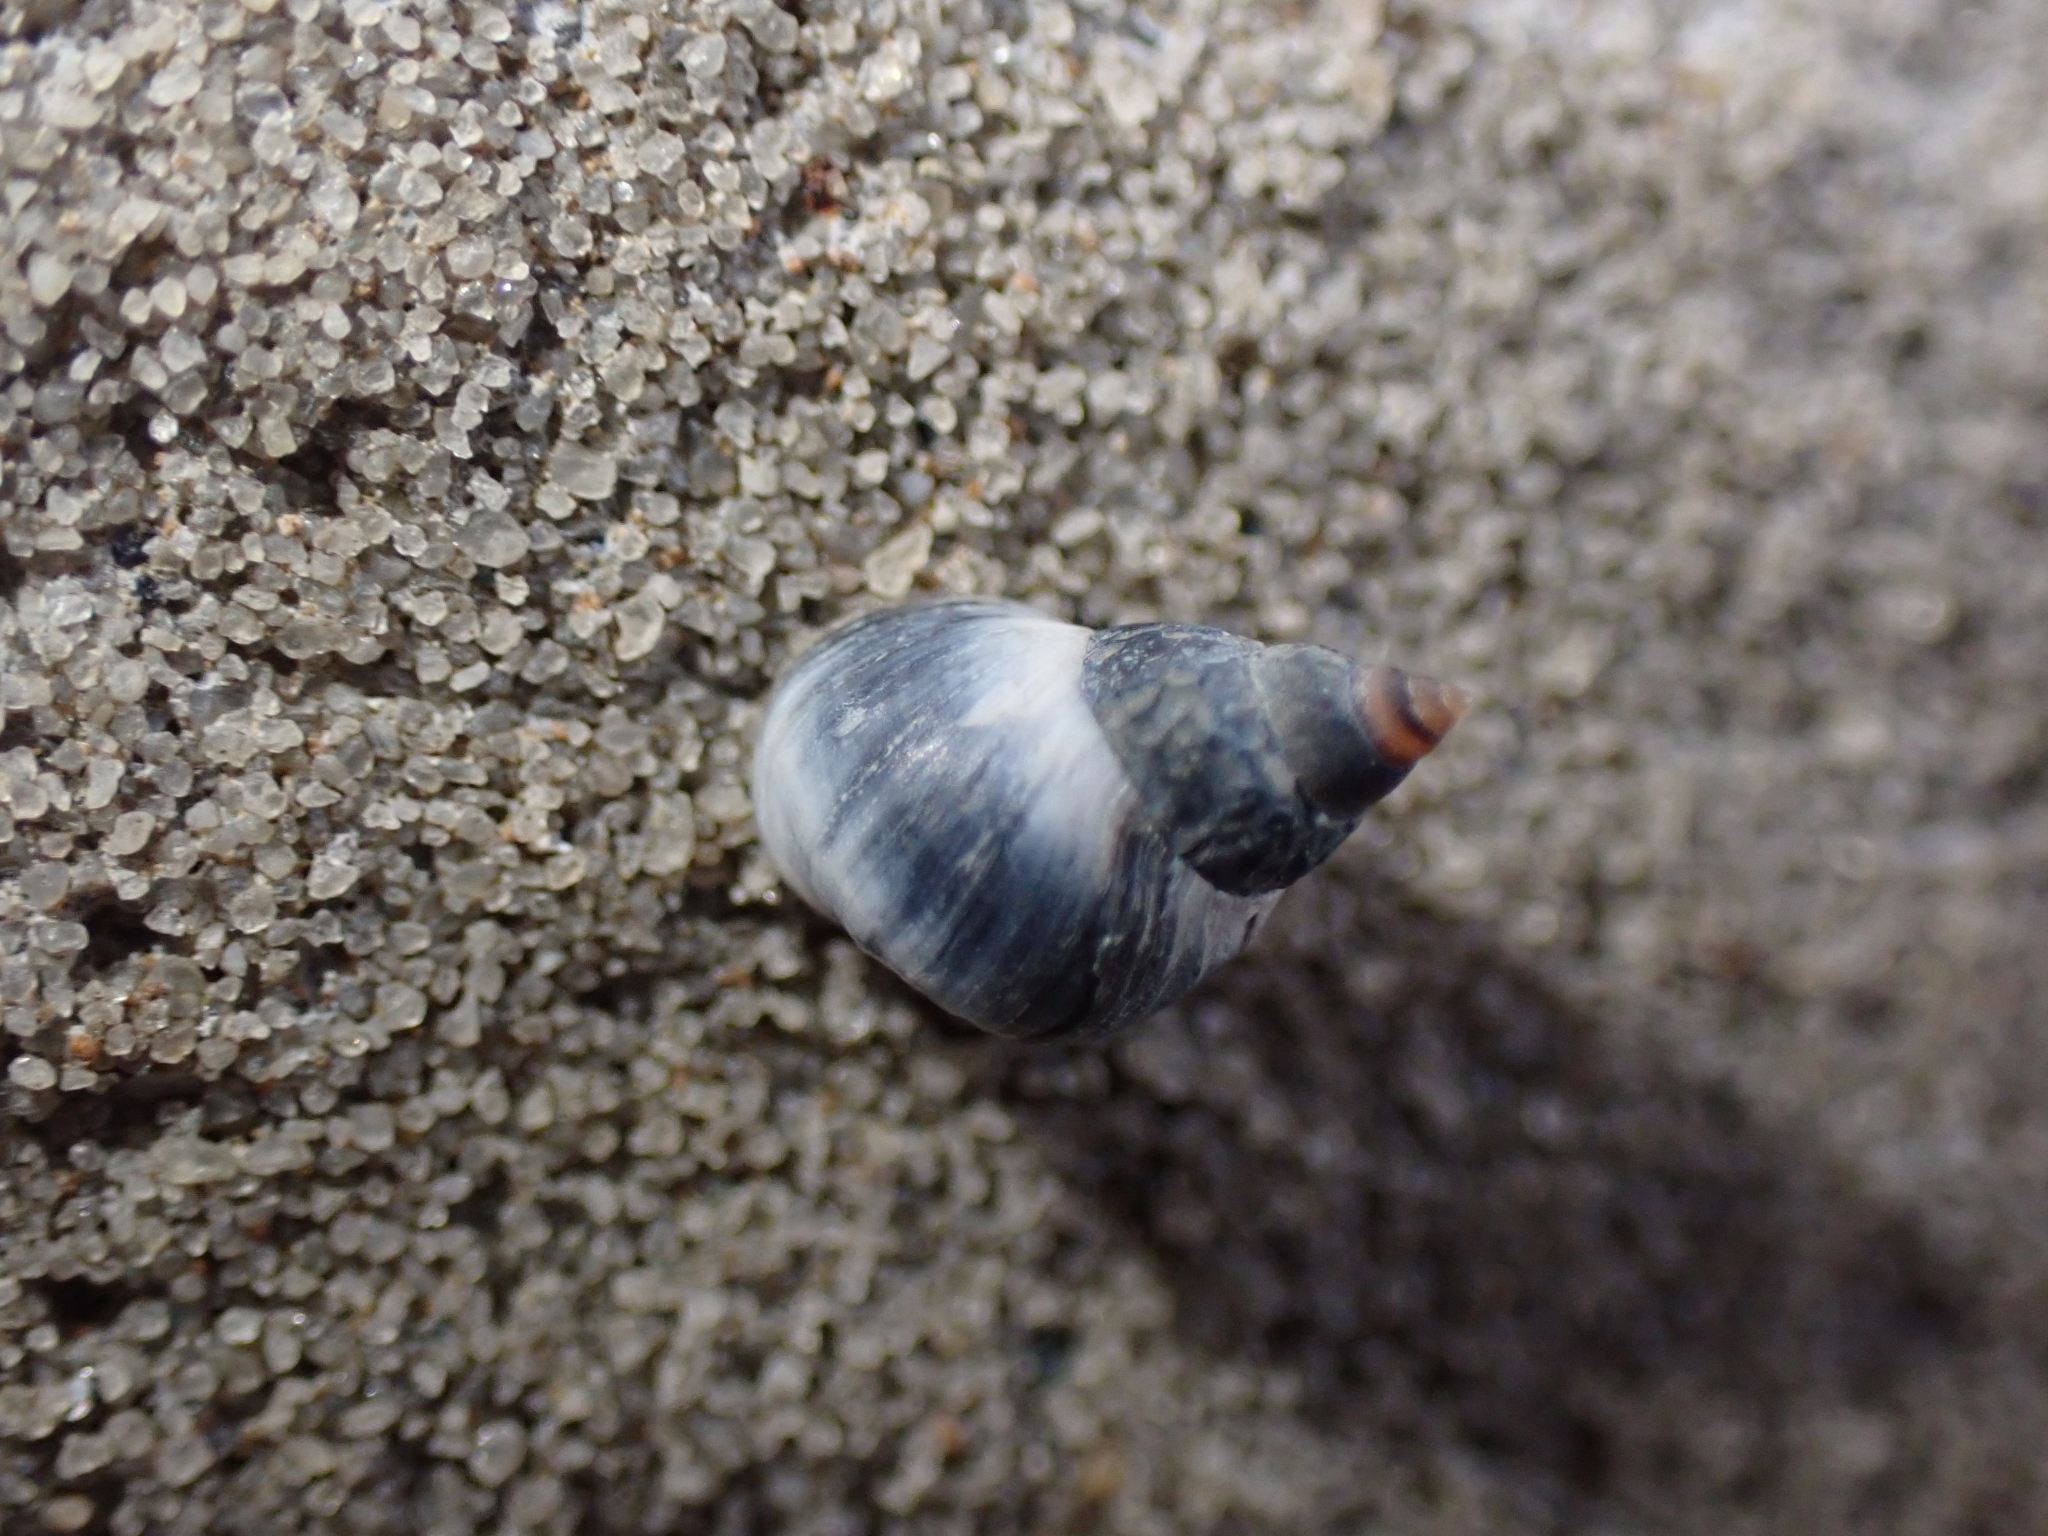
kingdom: Animalia
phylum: Mollusca
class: Gastropoda
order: Littorinimorpha
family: Littorinidae
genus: Austrolittorina
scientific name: Austrolittorina antipodum
